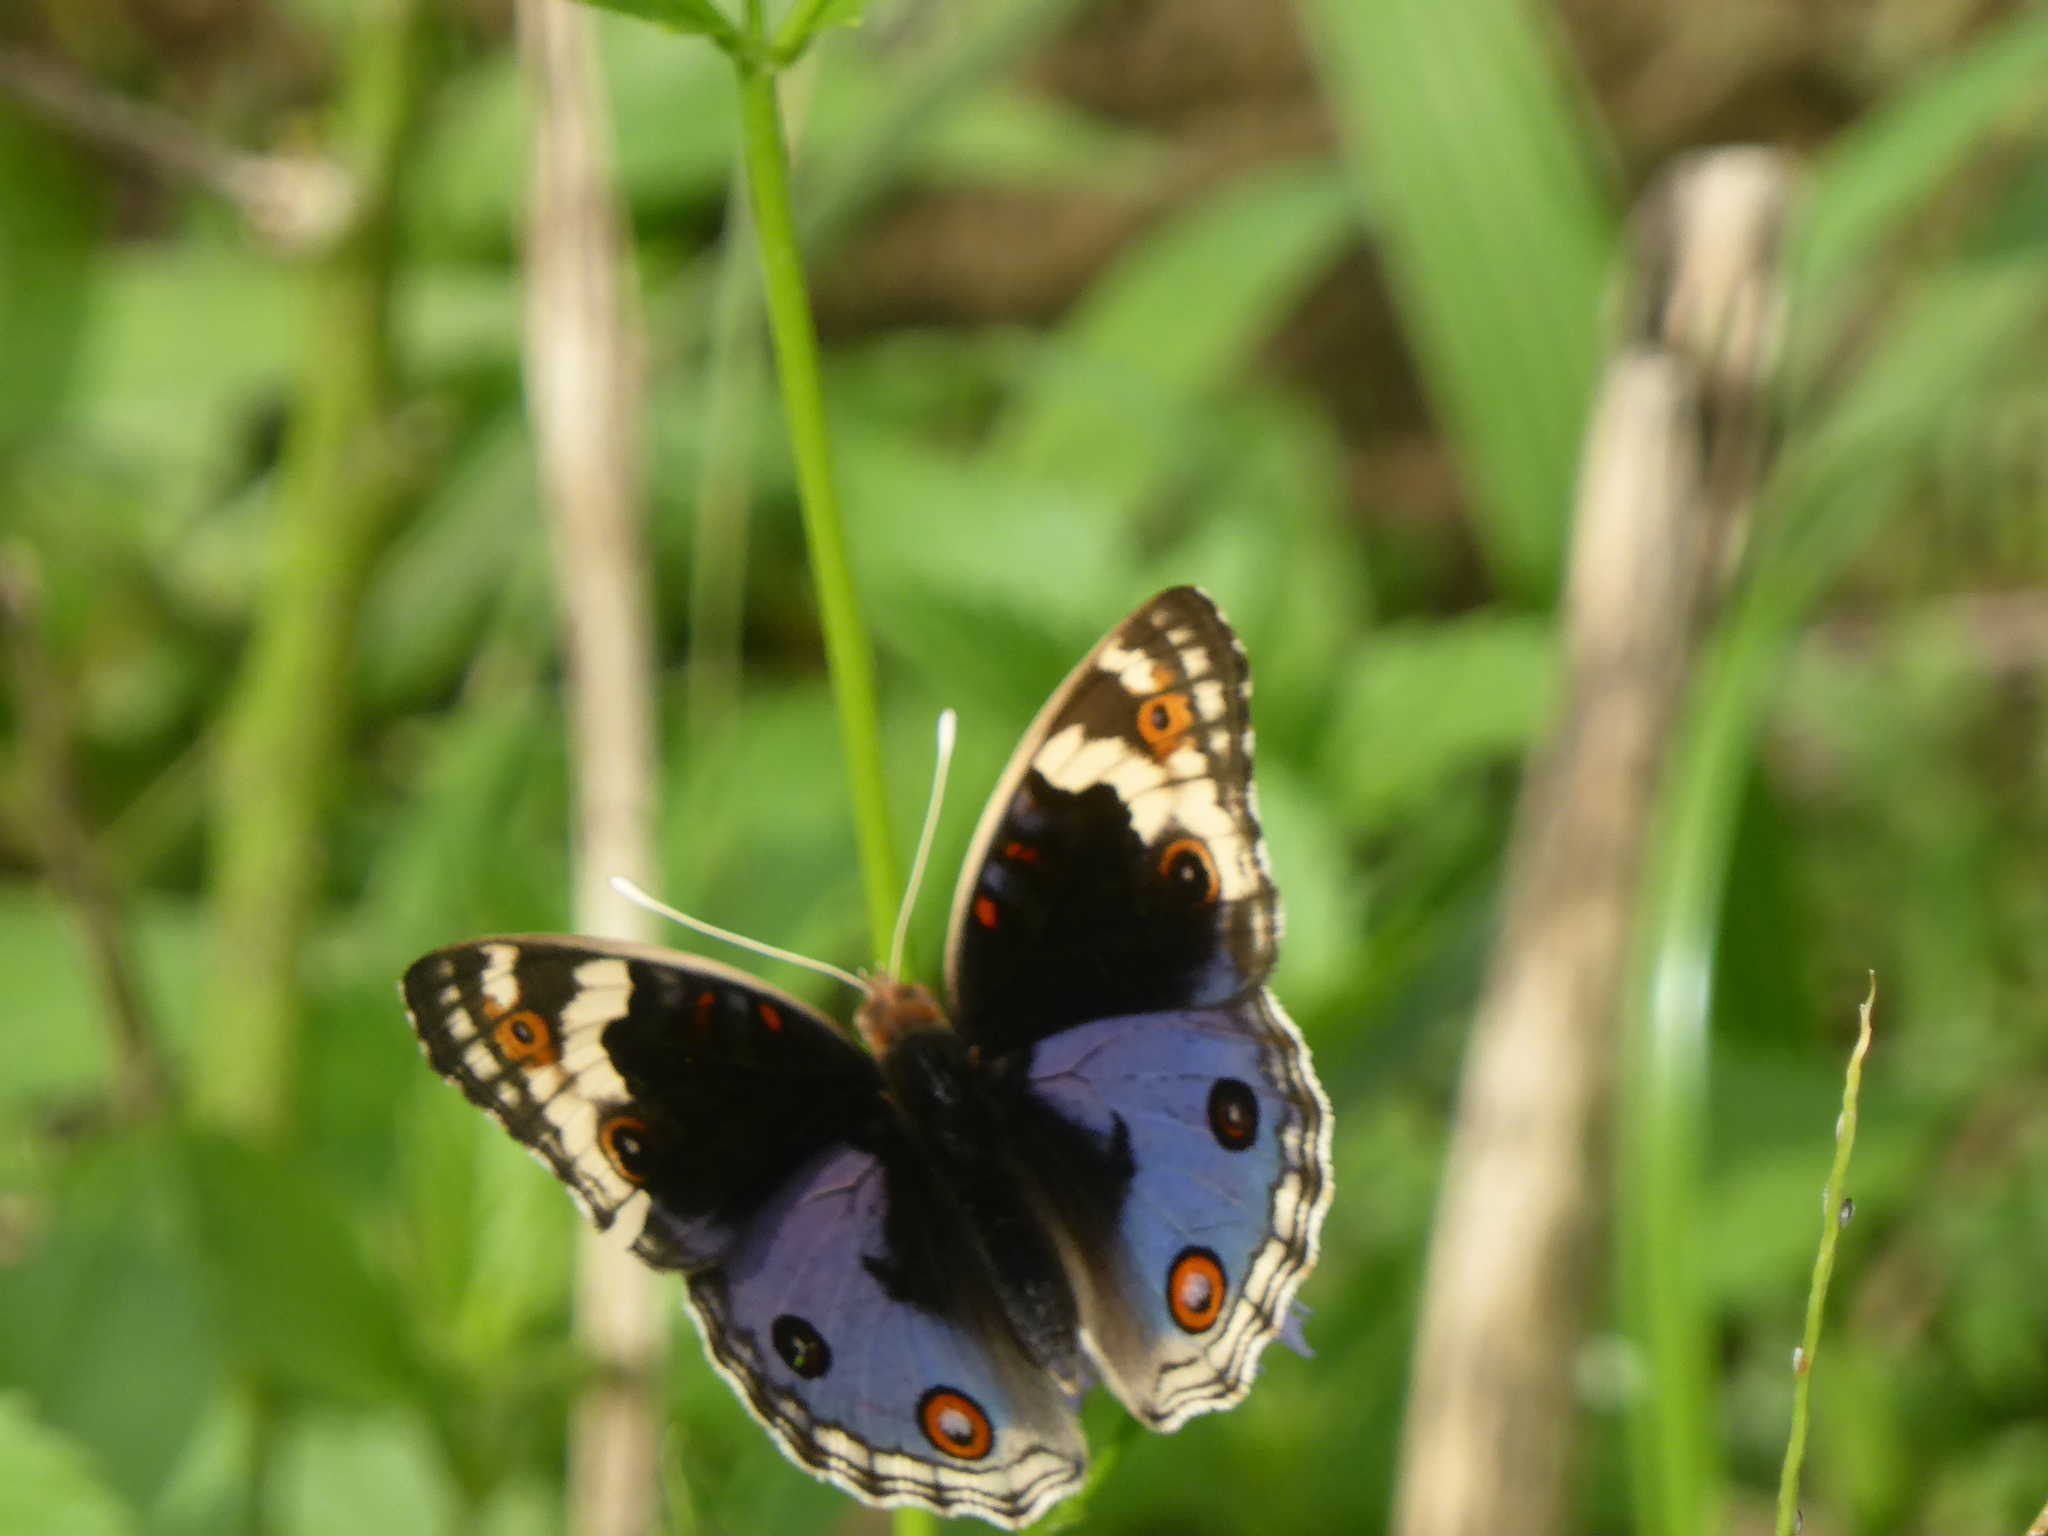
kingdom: Animalia
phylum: Arthropoda
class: Insecta
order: Lepidoptera
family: Nymphalidae
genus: Junonia
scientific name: Junonia orithya
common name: Blue pansy
